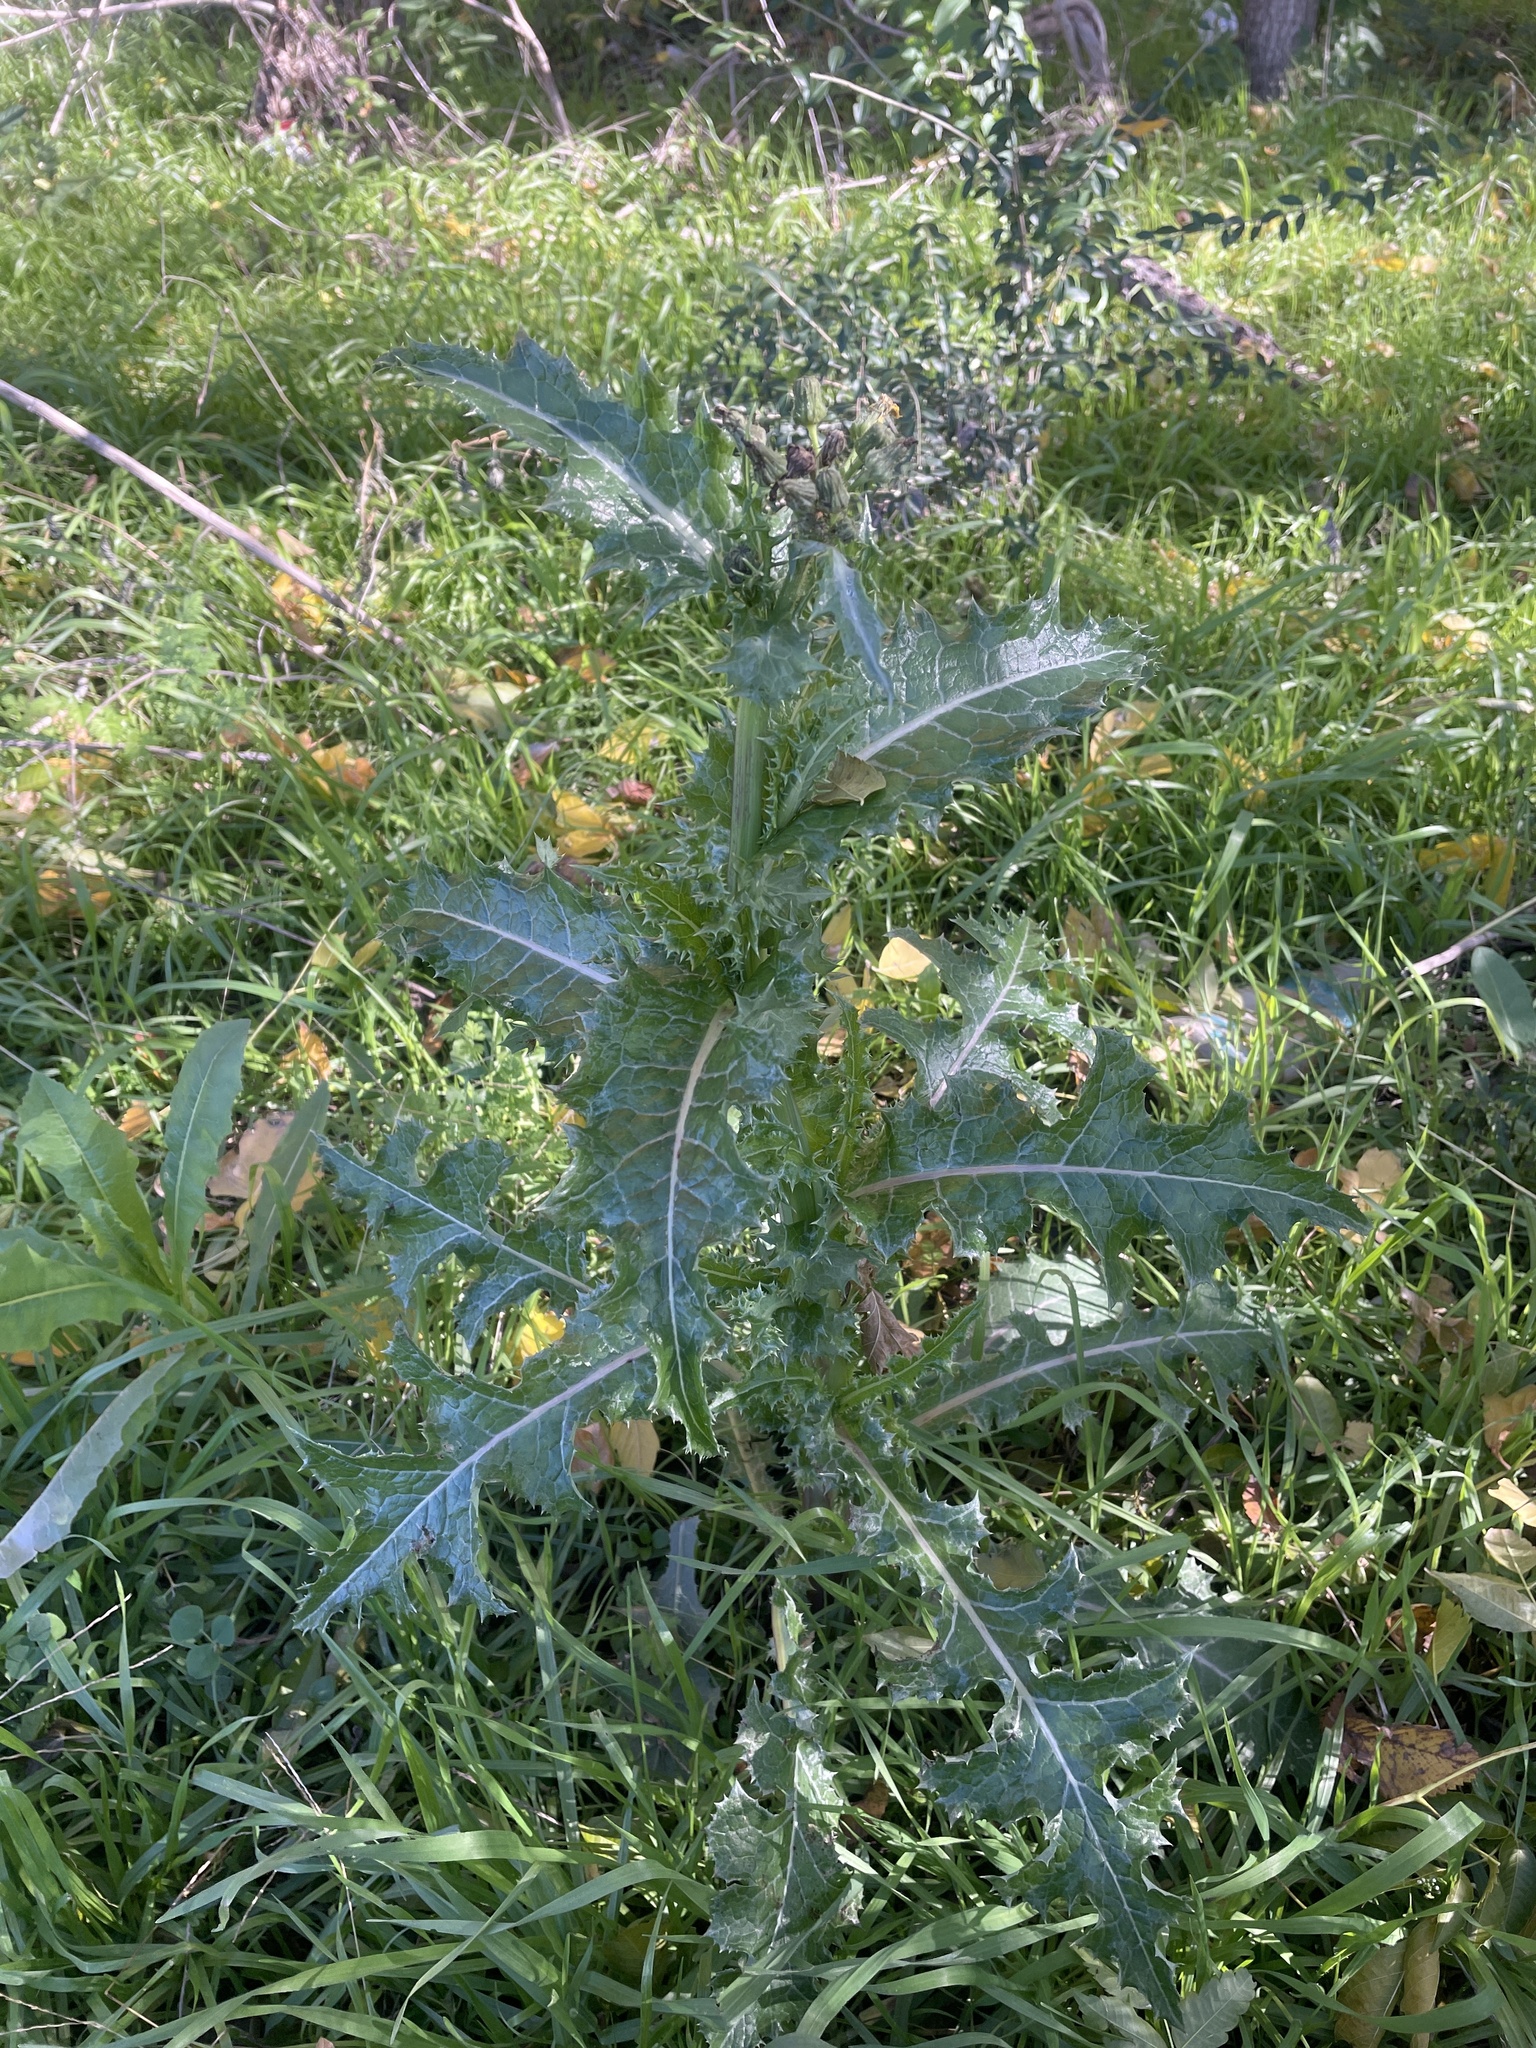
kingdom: Plantae
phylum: Tracheophyta
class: Magnoliopsida
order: Asterales
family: Asteraceae
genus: Sonchus
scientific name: Sonchus asper
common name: Prickly sow-thistle
